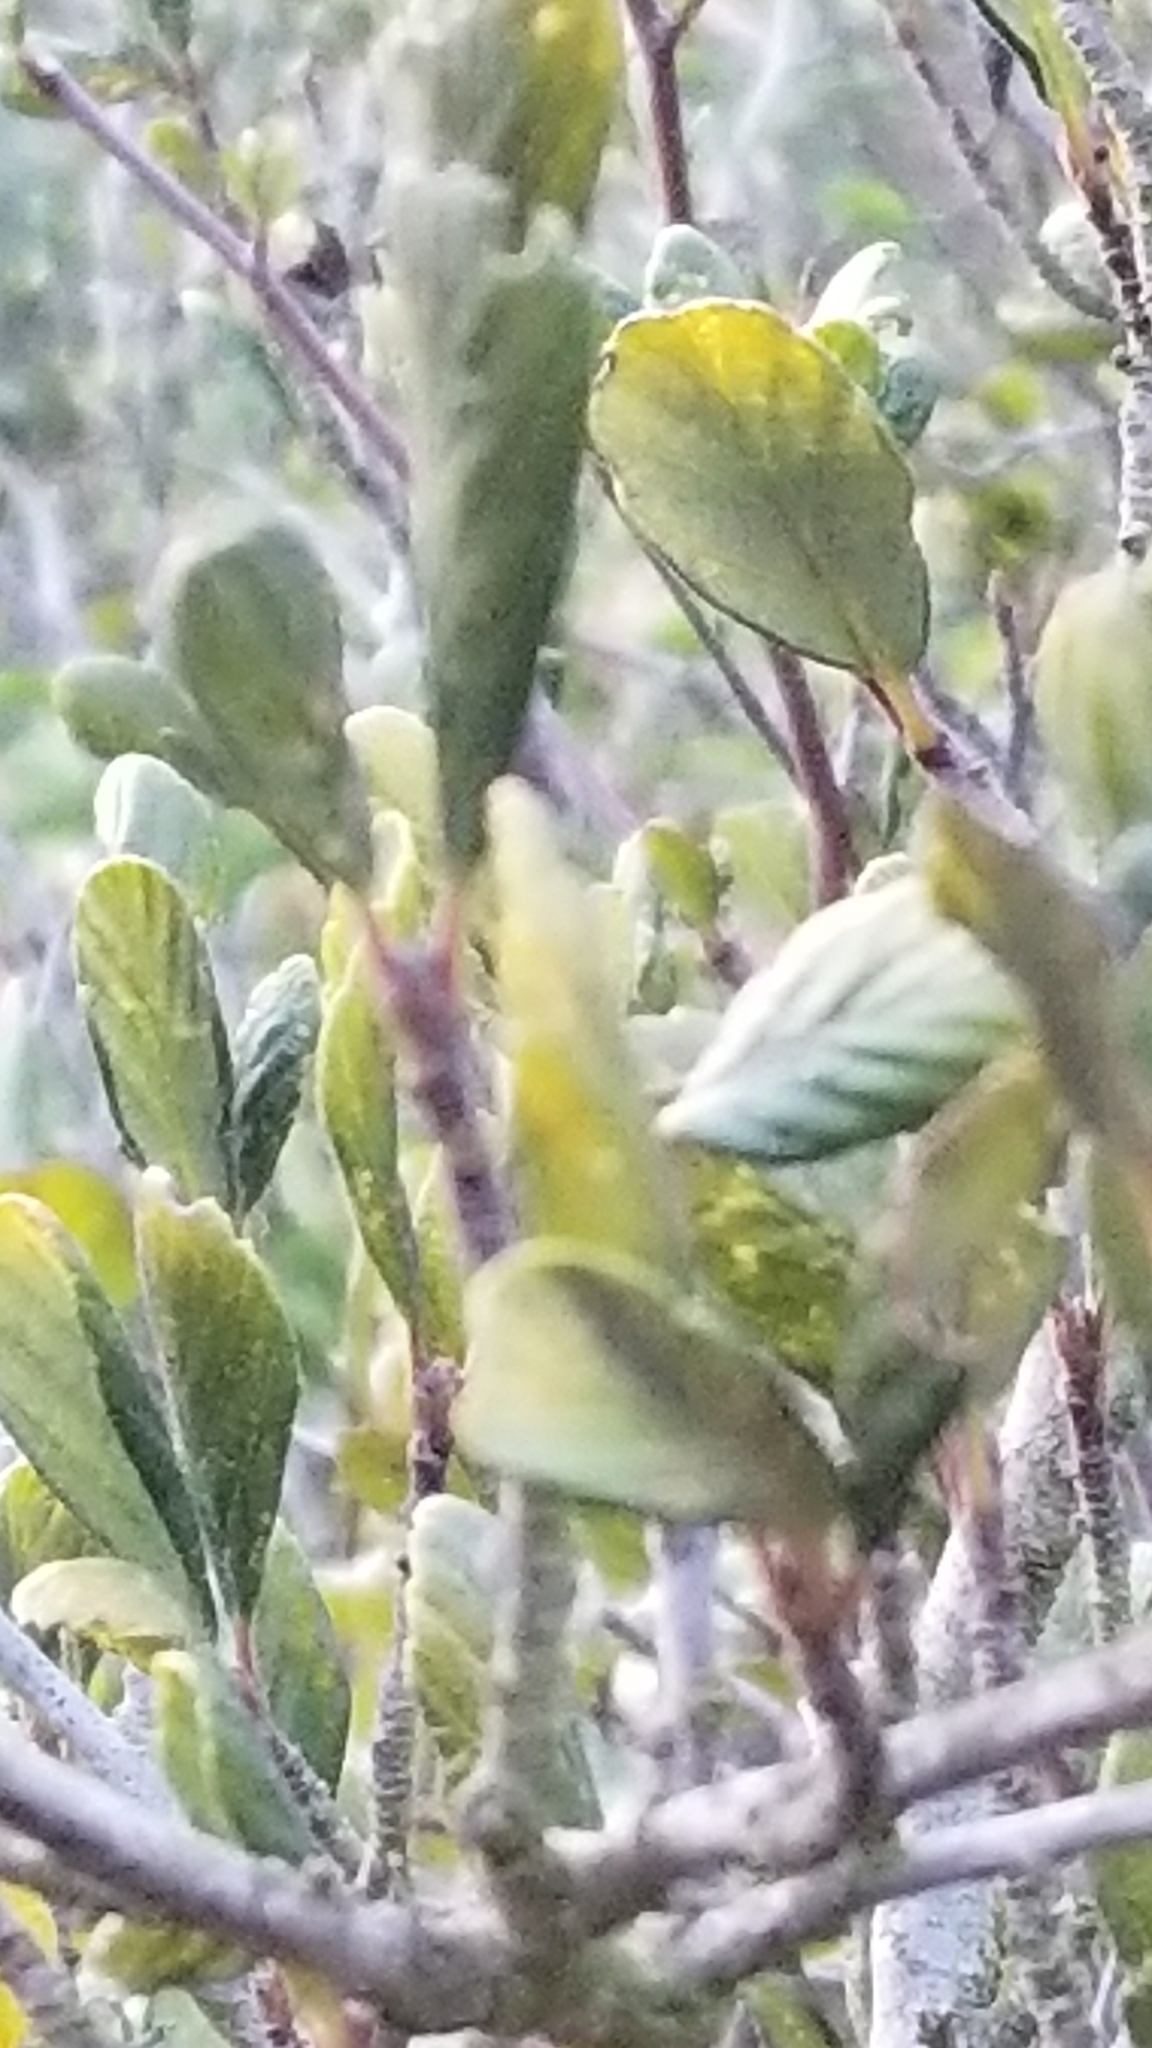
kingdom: Plantae
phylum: Tracheophyta
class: Magnoliopsida
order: Rosales
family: Rosaceae
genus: Cercocarpus
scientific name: Cercocarpus betuloides
